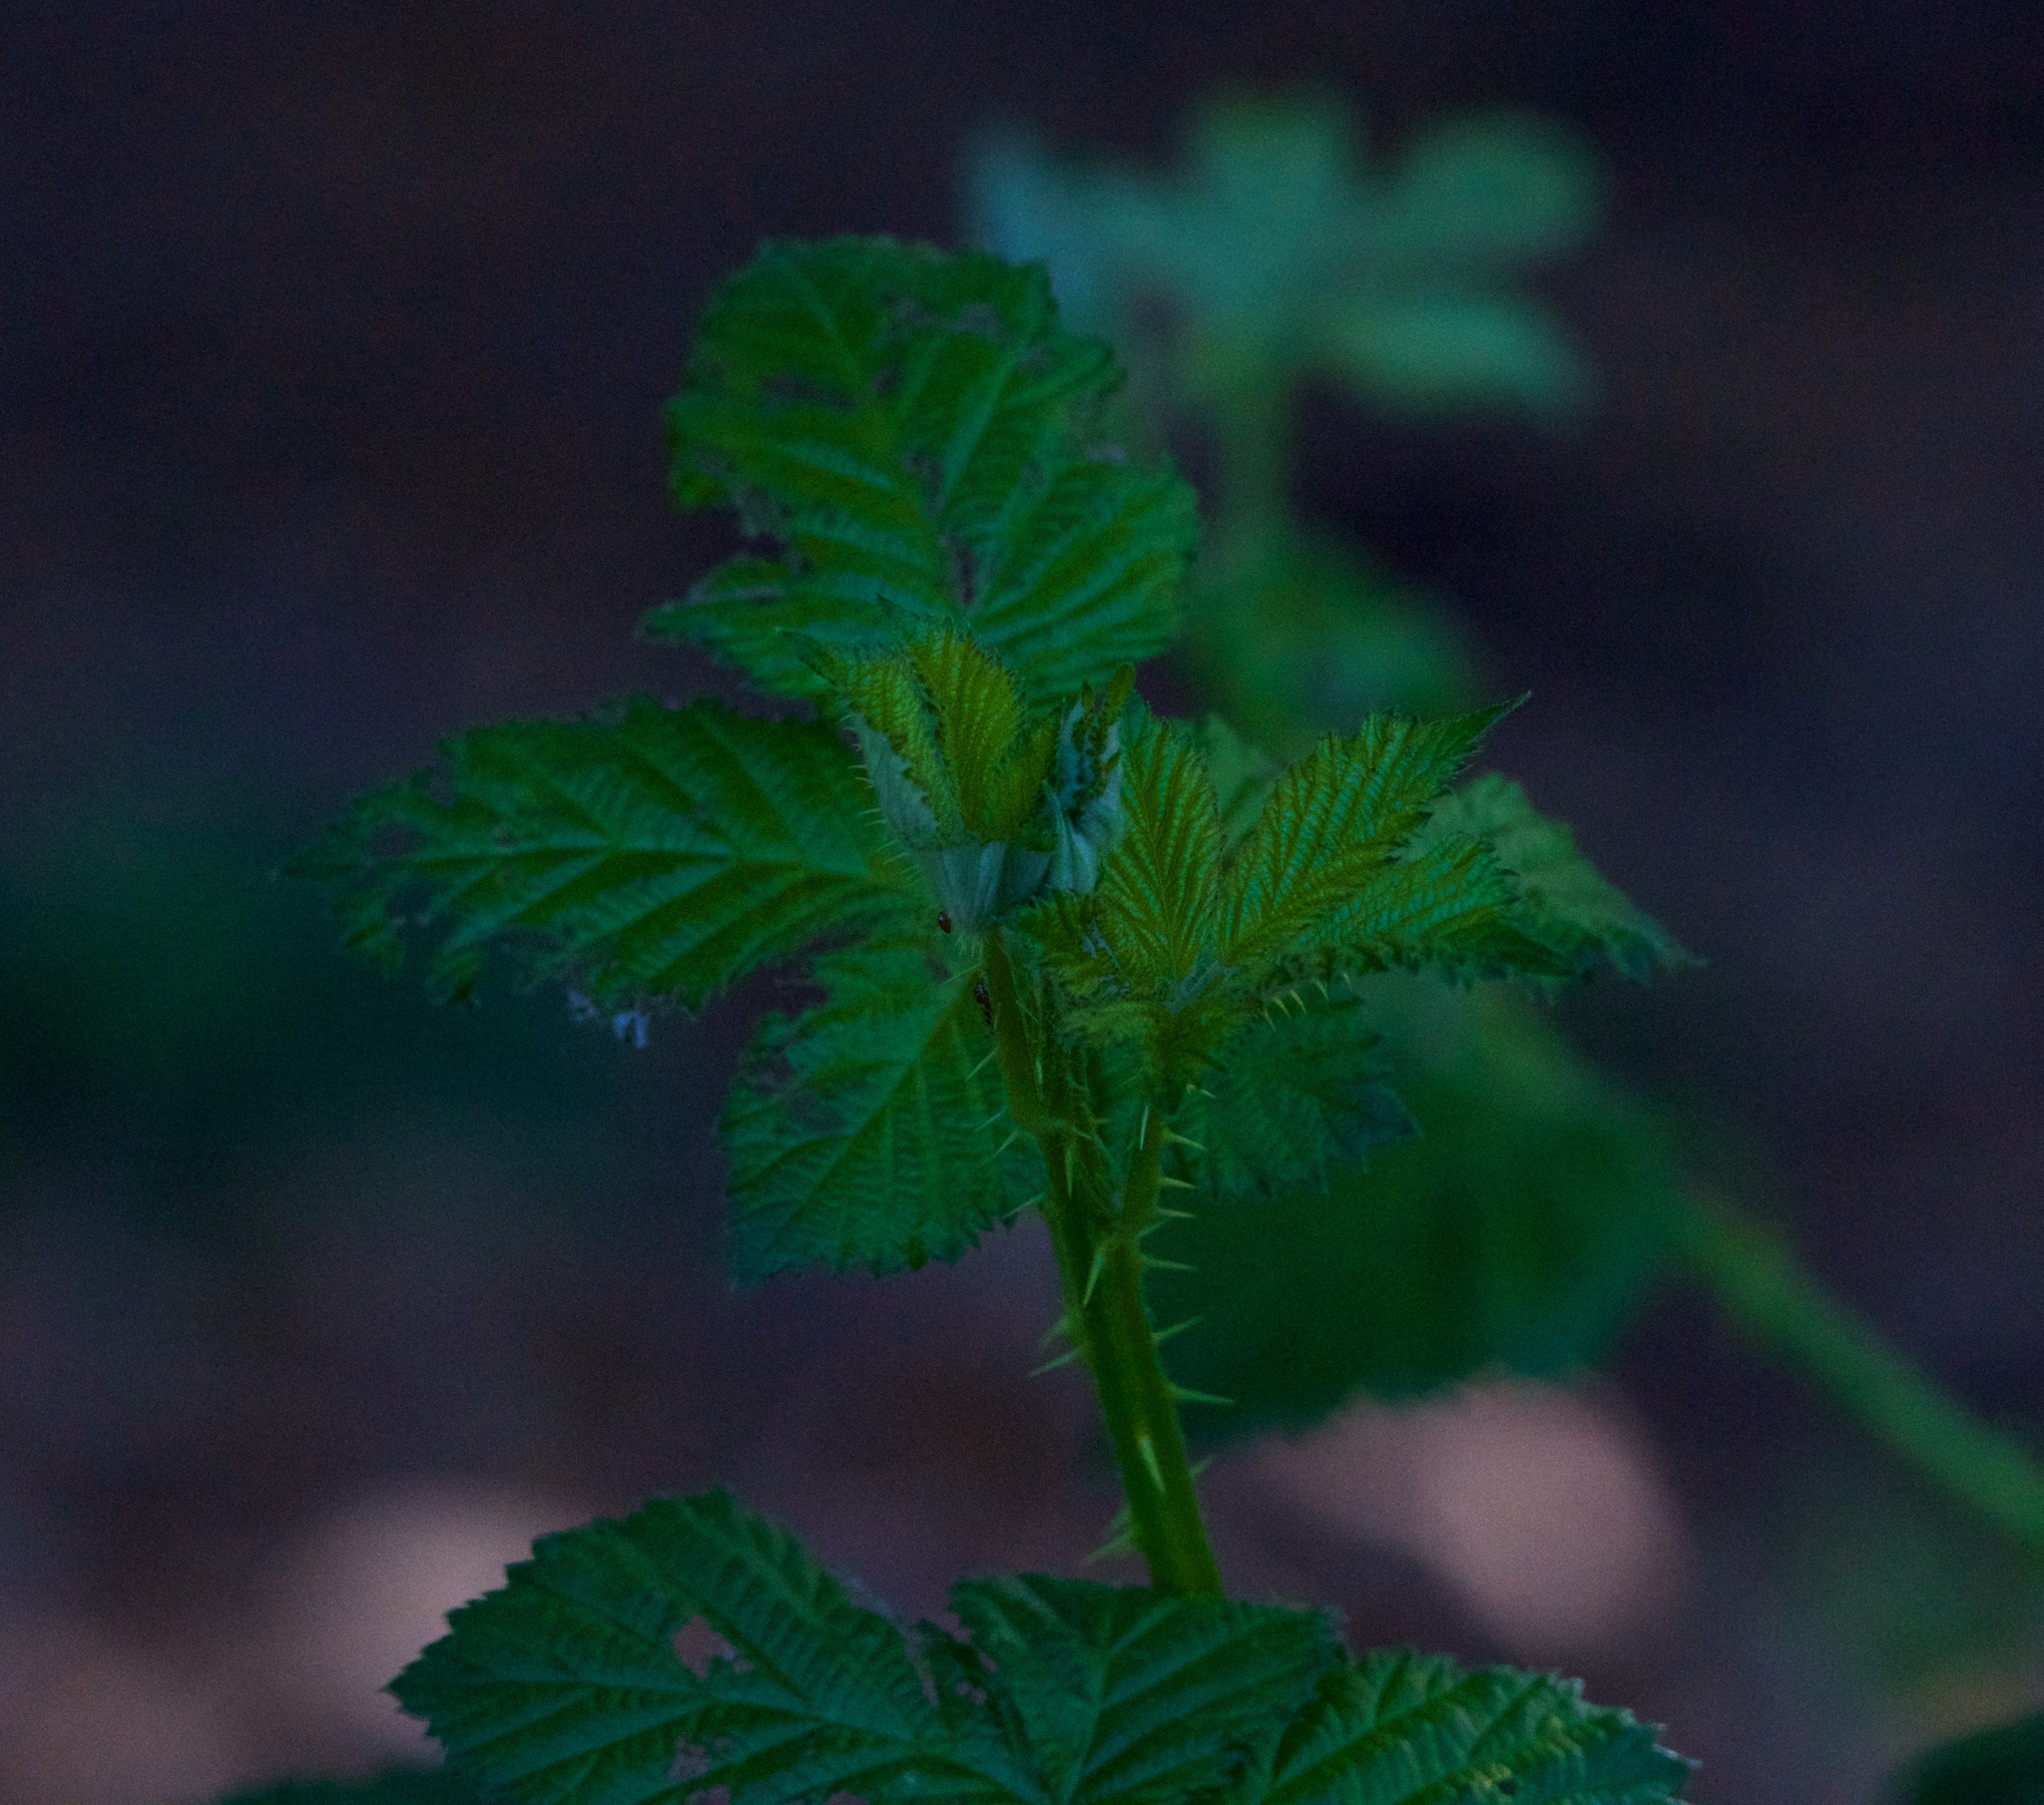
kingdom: Plantae
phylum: Tracheophyta
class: Magnoliopsida
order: Rosales
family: Rosaceae
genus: Rubus
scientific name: Rubus armeniacus
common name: Himalayan blackberry
